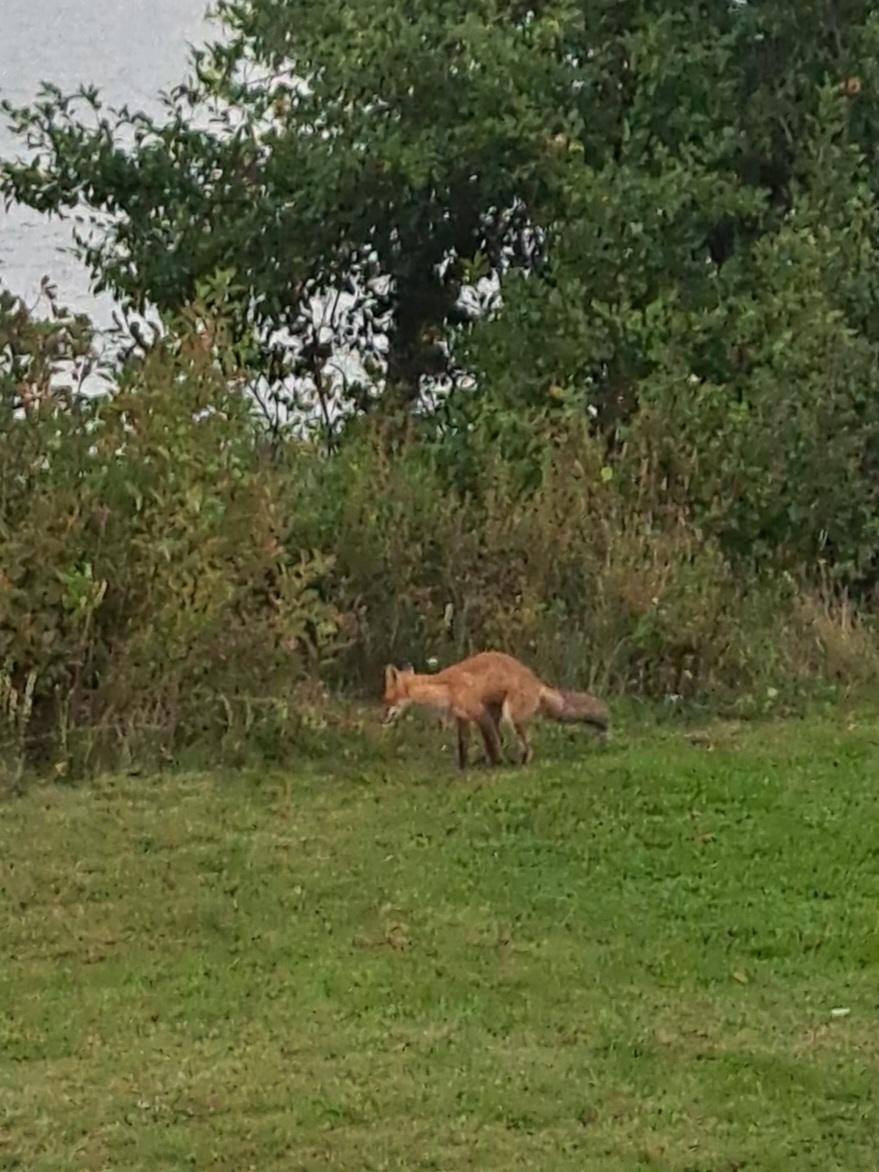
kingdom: Animalia
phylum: Chordata
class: Mammalia
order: Carnivora
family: Canidae
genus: Vulpes
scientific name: Vulpes vulpes
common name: Red fox
